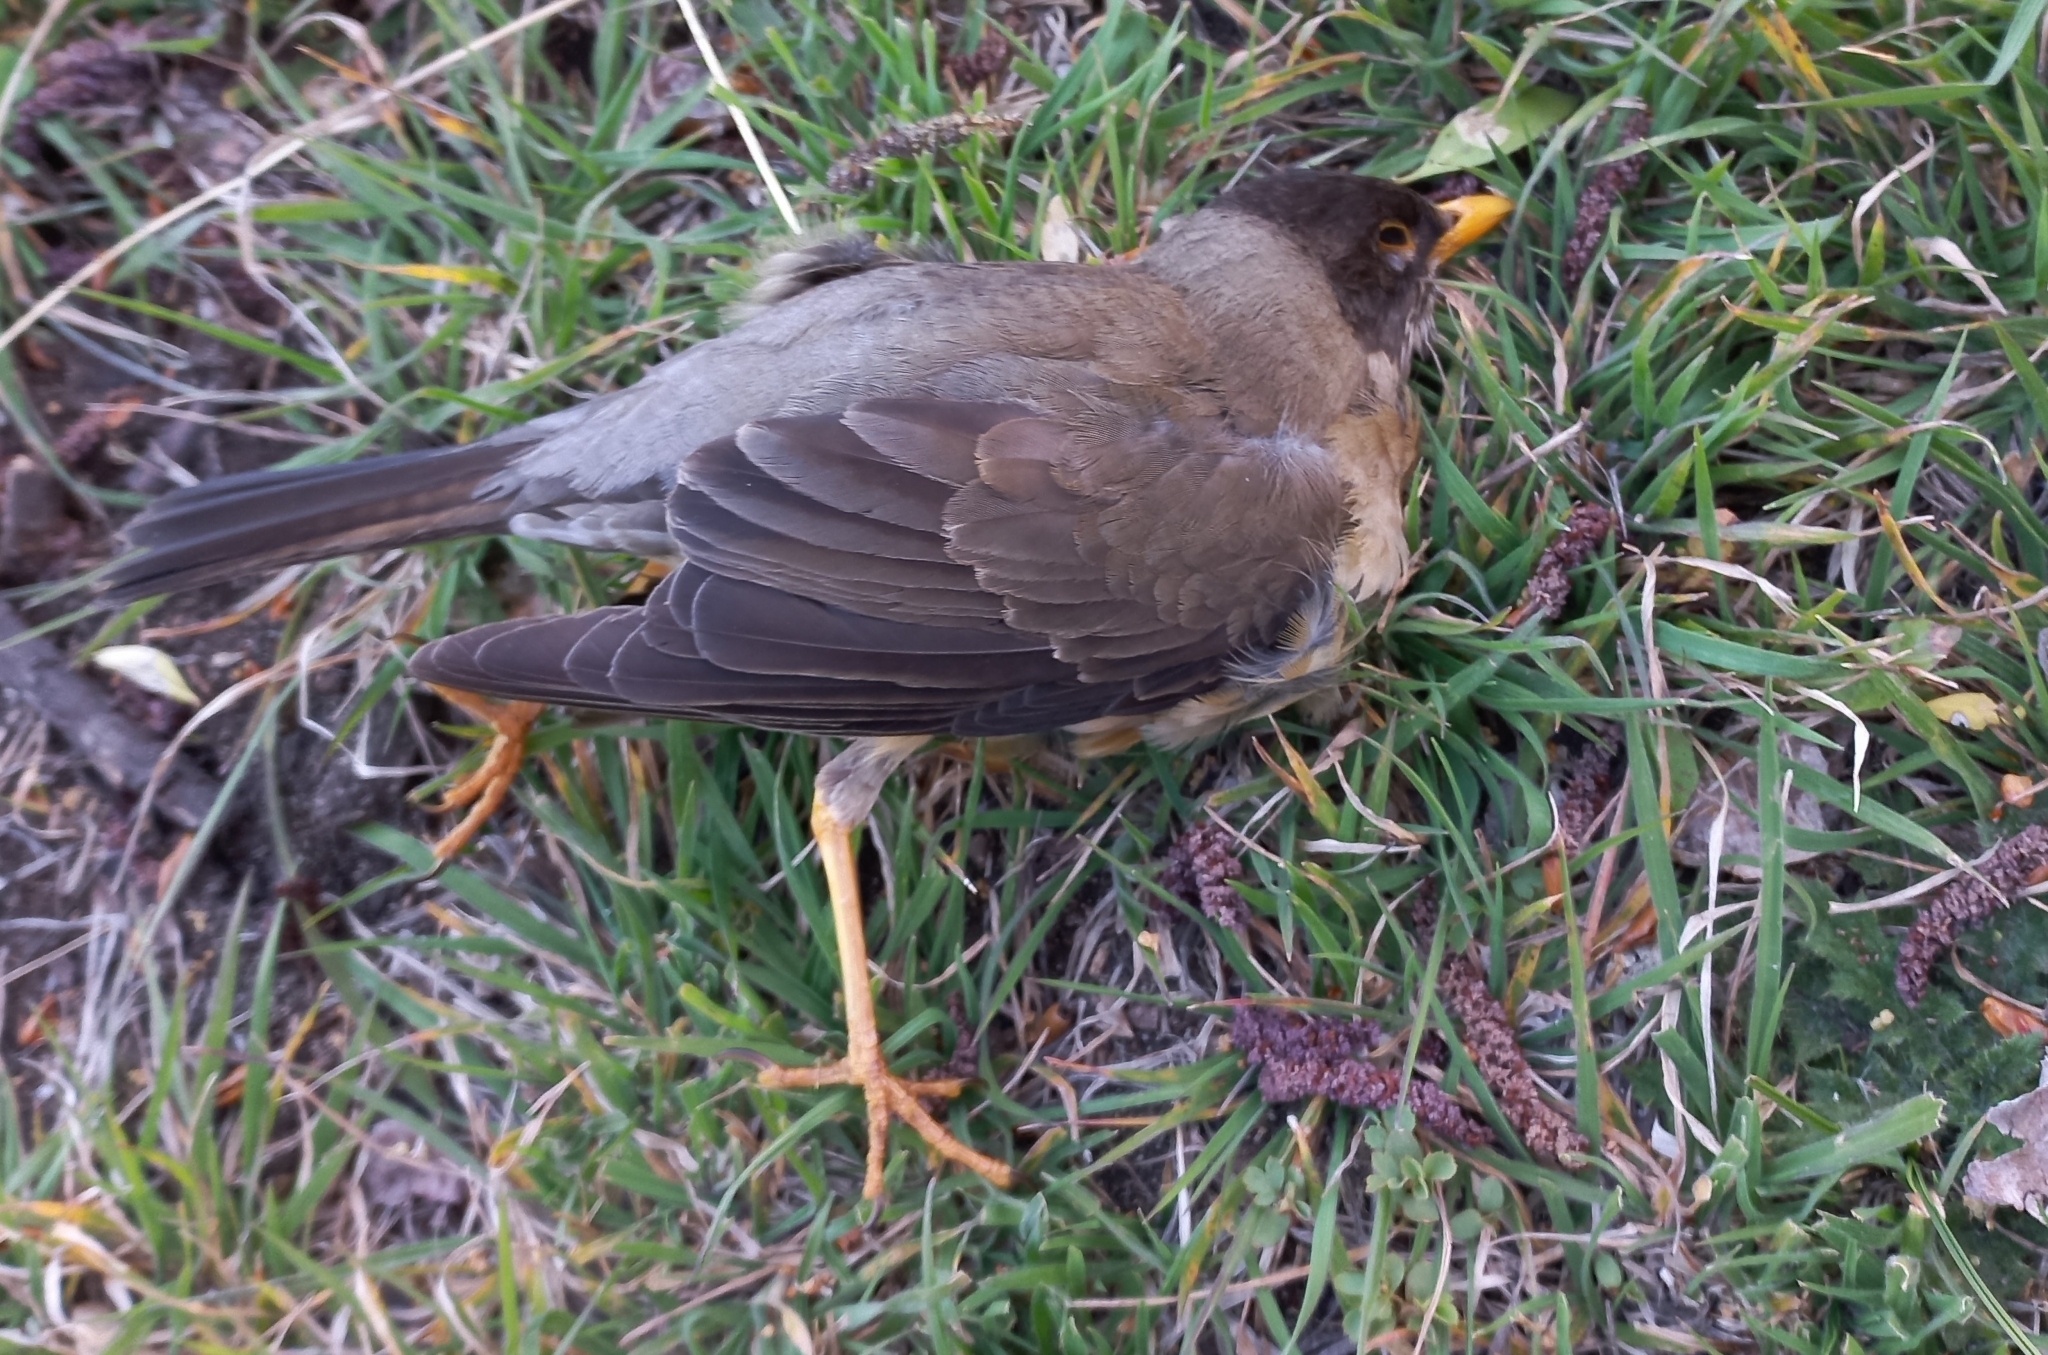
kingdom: Animalia
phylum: Chordata
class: Aves
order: Passeriformes
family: Turdidae
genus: Turdus
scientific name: Turdus falcklandii
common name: Austral thrush
